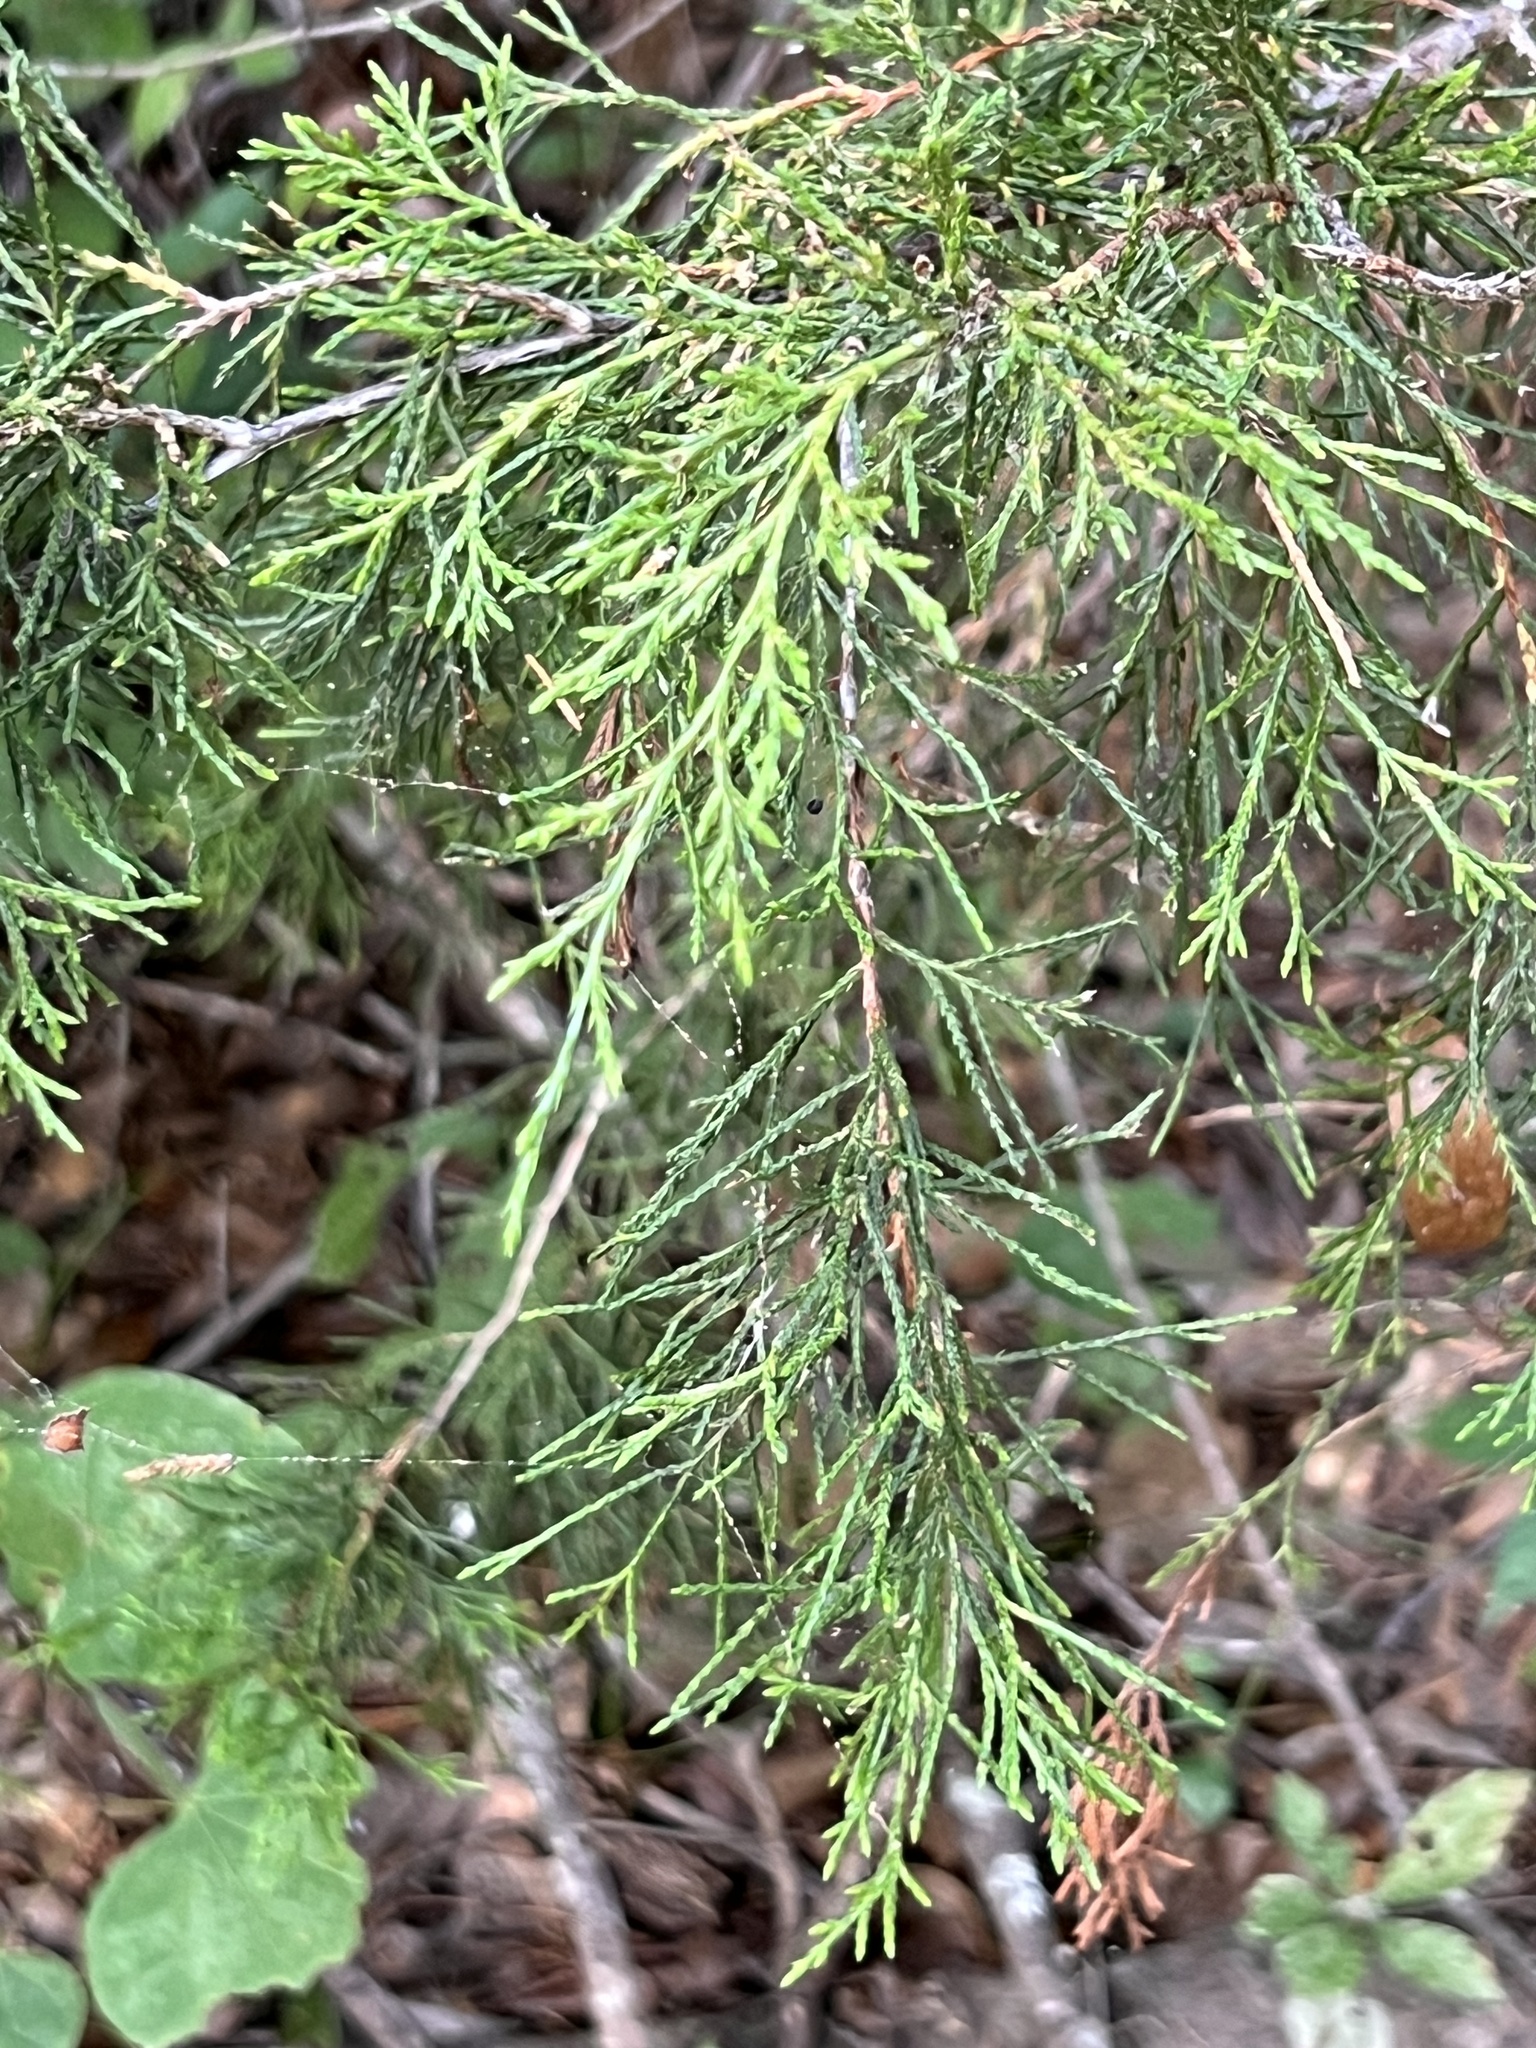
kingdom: Plantae
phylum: Tracheophyta
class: Pinopsida
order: Pinales
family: Cupressaceae
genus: Juniperus
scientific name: Juniperus virginiana
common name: Red juniper
